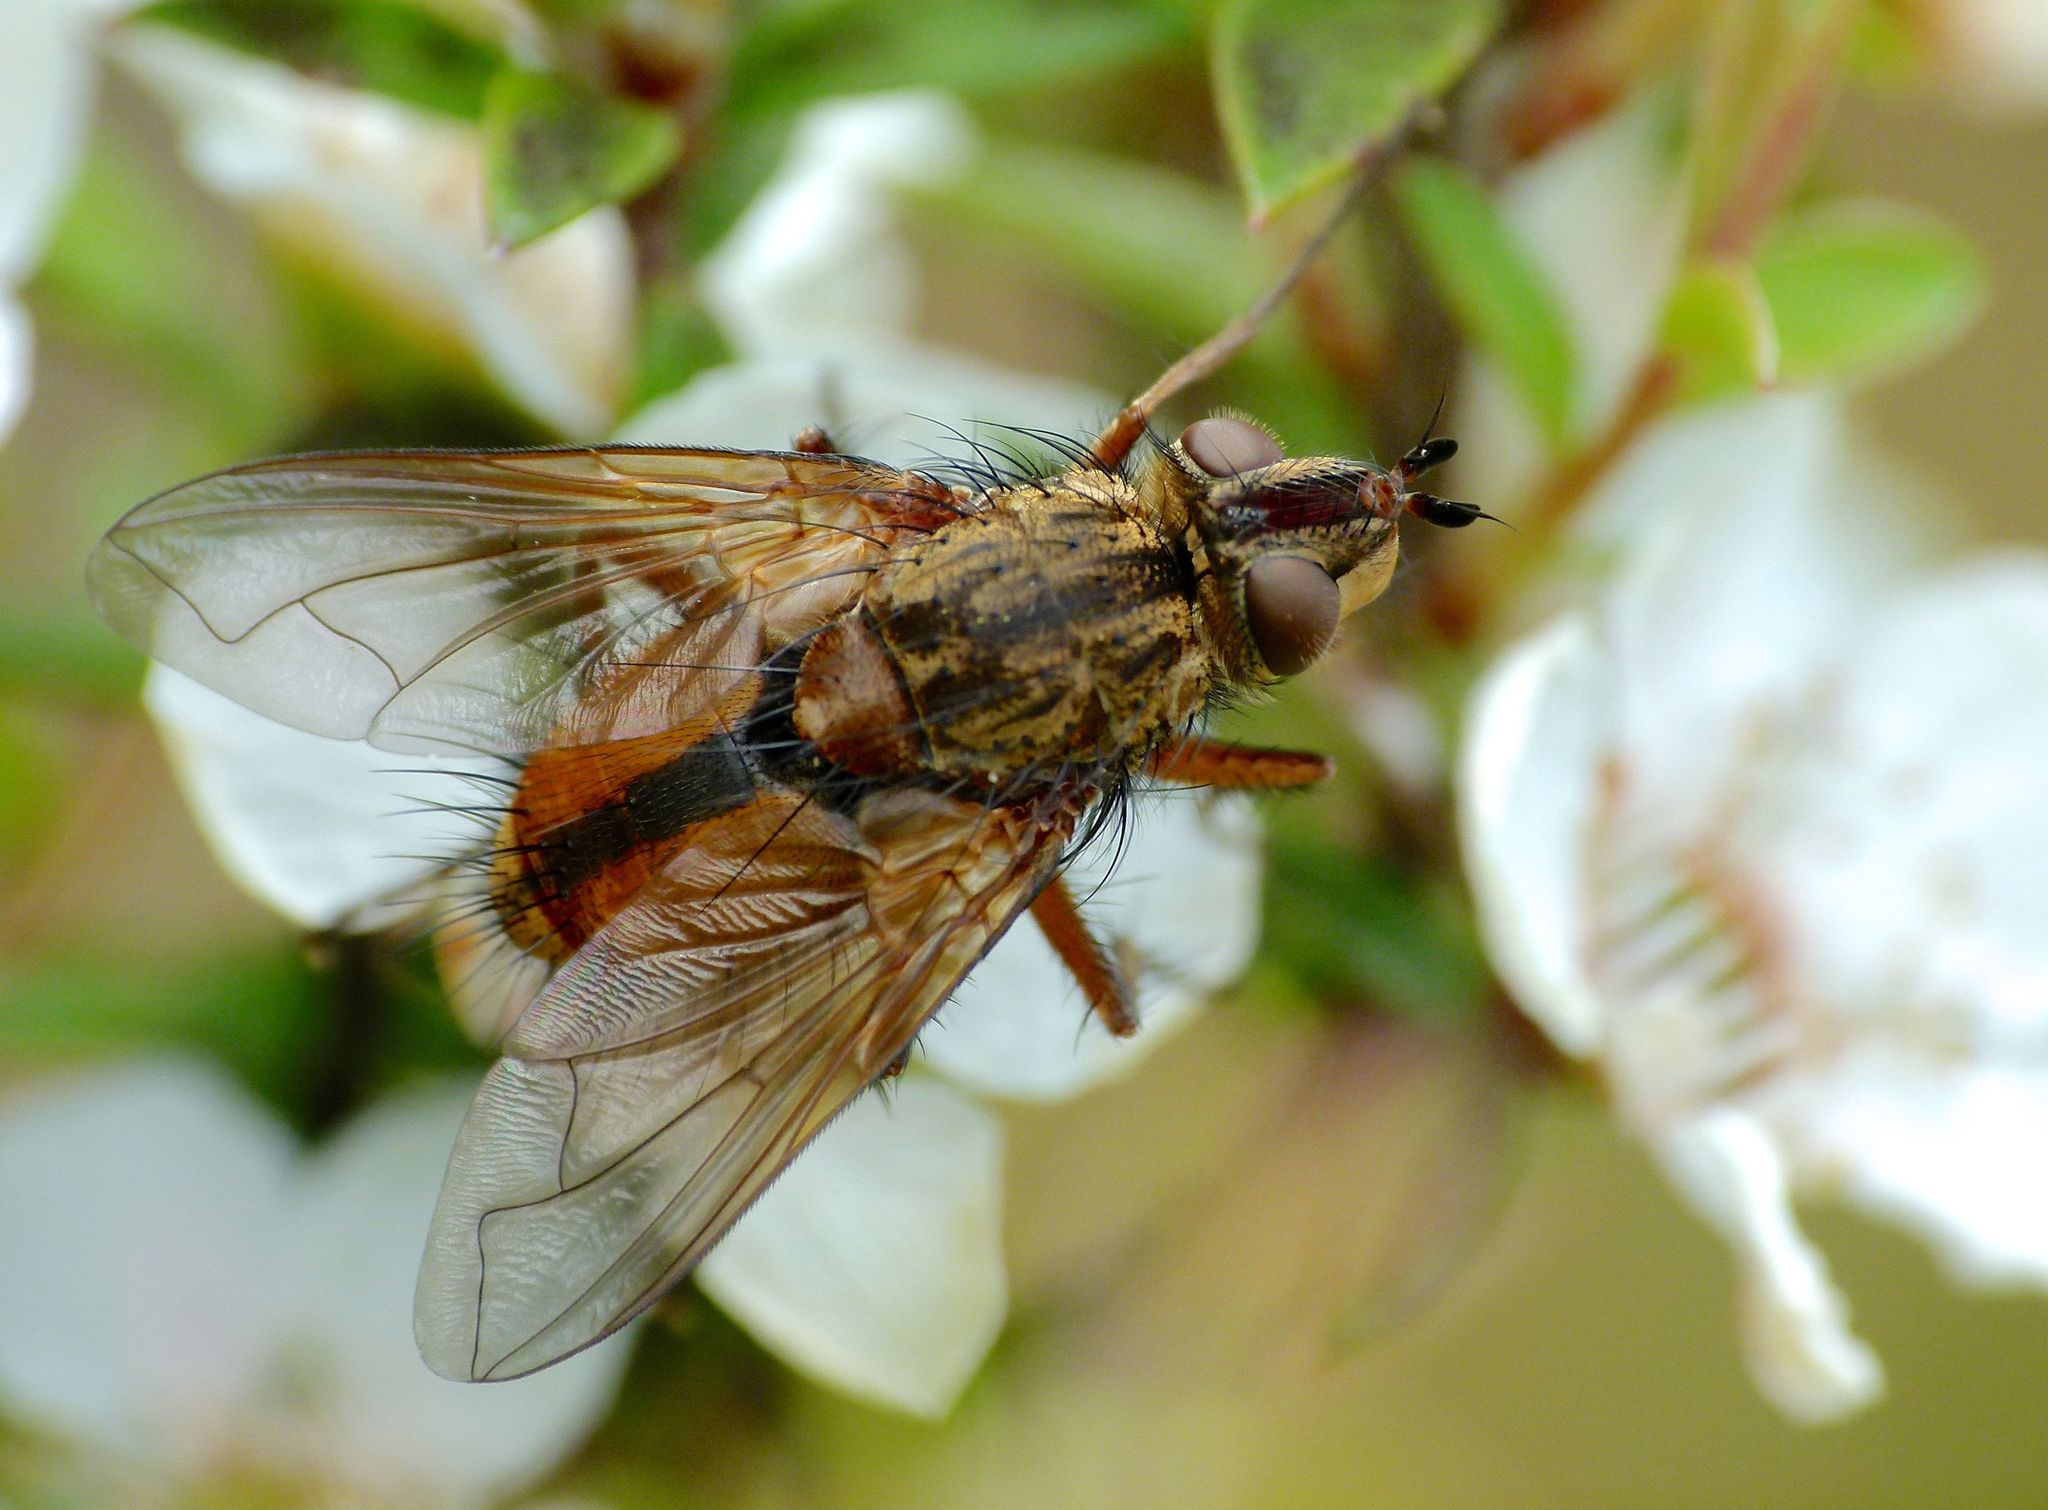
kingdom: Animalia
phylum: Arthropoda
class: Insecta
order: Diptera
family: Tachinidae
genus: Peremptor
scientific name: Peremptor kumaraensis
